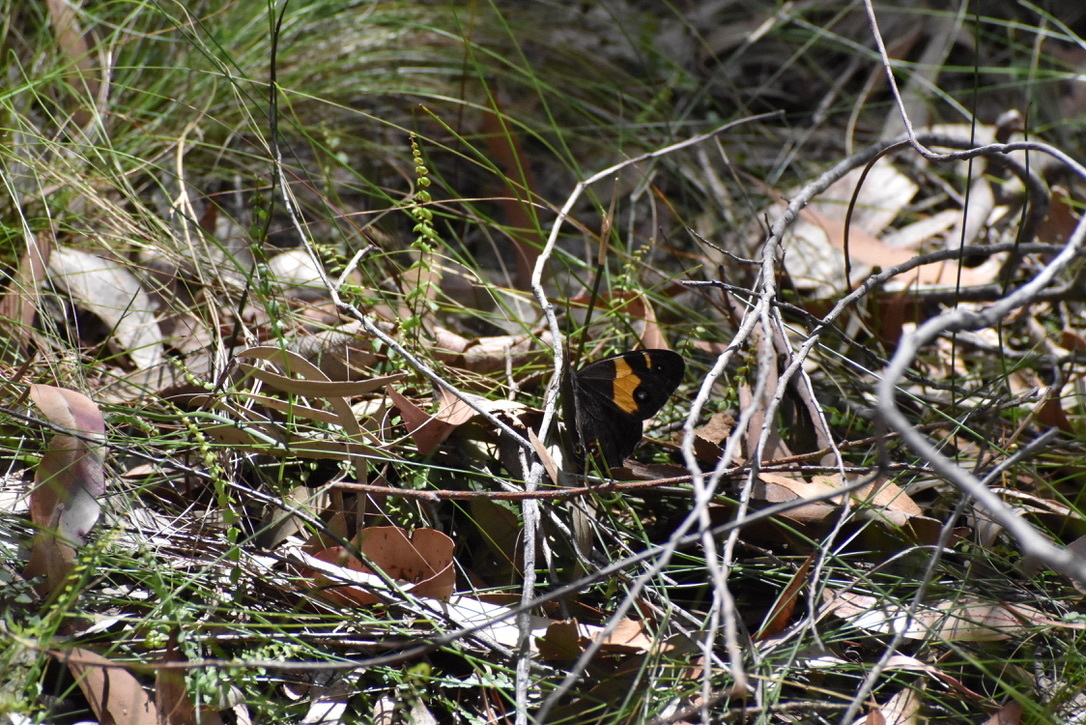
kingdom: Animalia
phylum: Arthropoda
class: Insecta
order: Lepidoptera
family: Nymphalidae
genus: Tisiphone
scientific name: Tisiphone abeona
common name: Swordgrass brown
